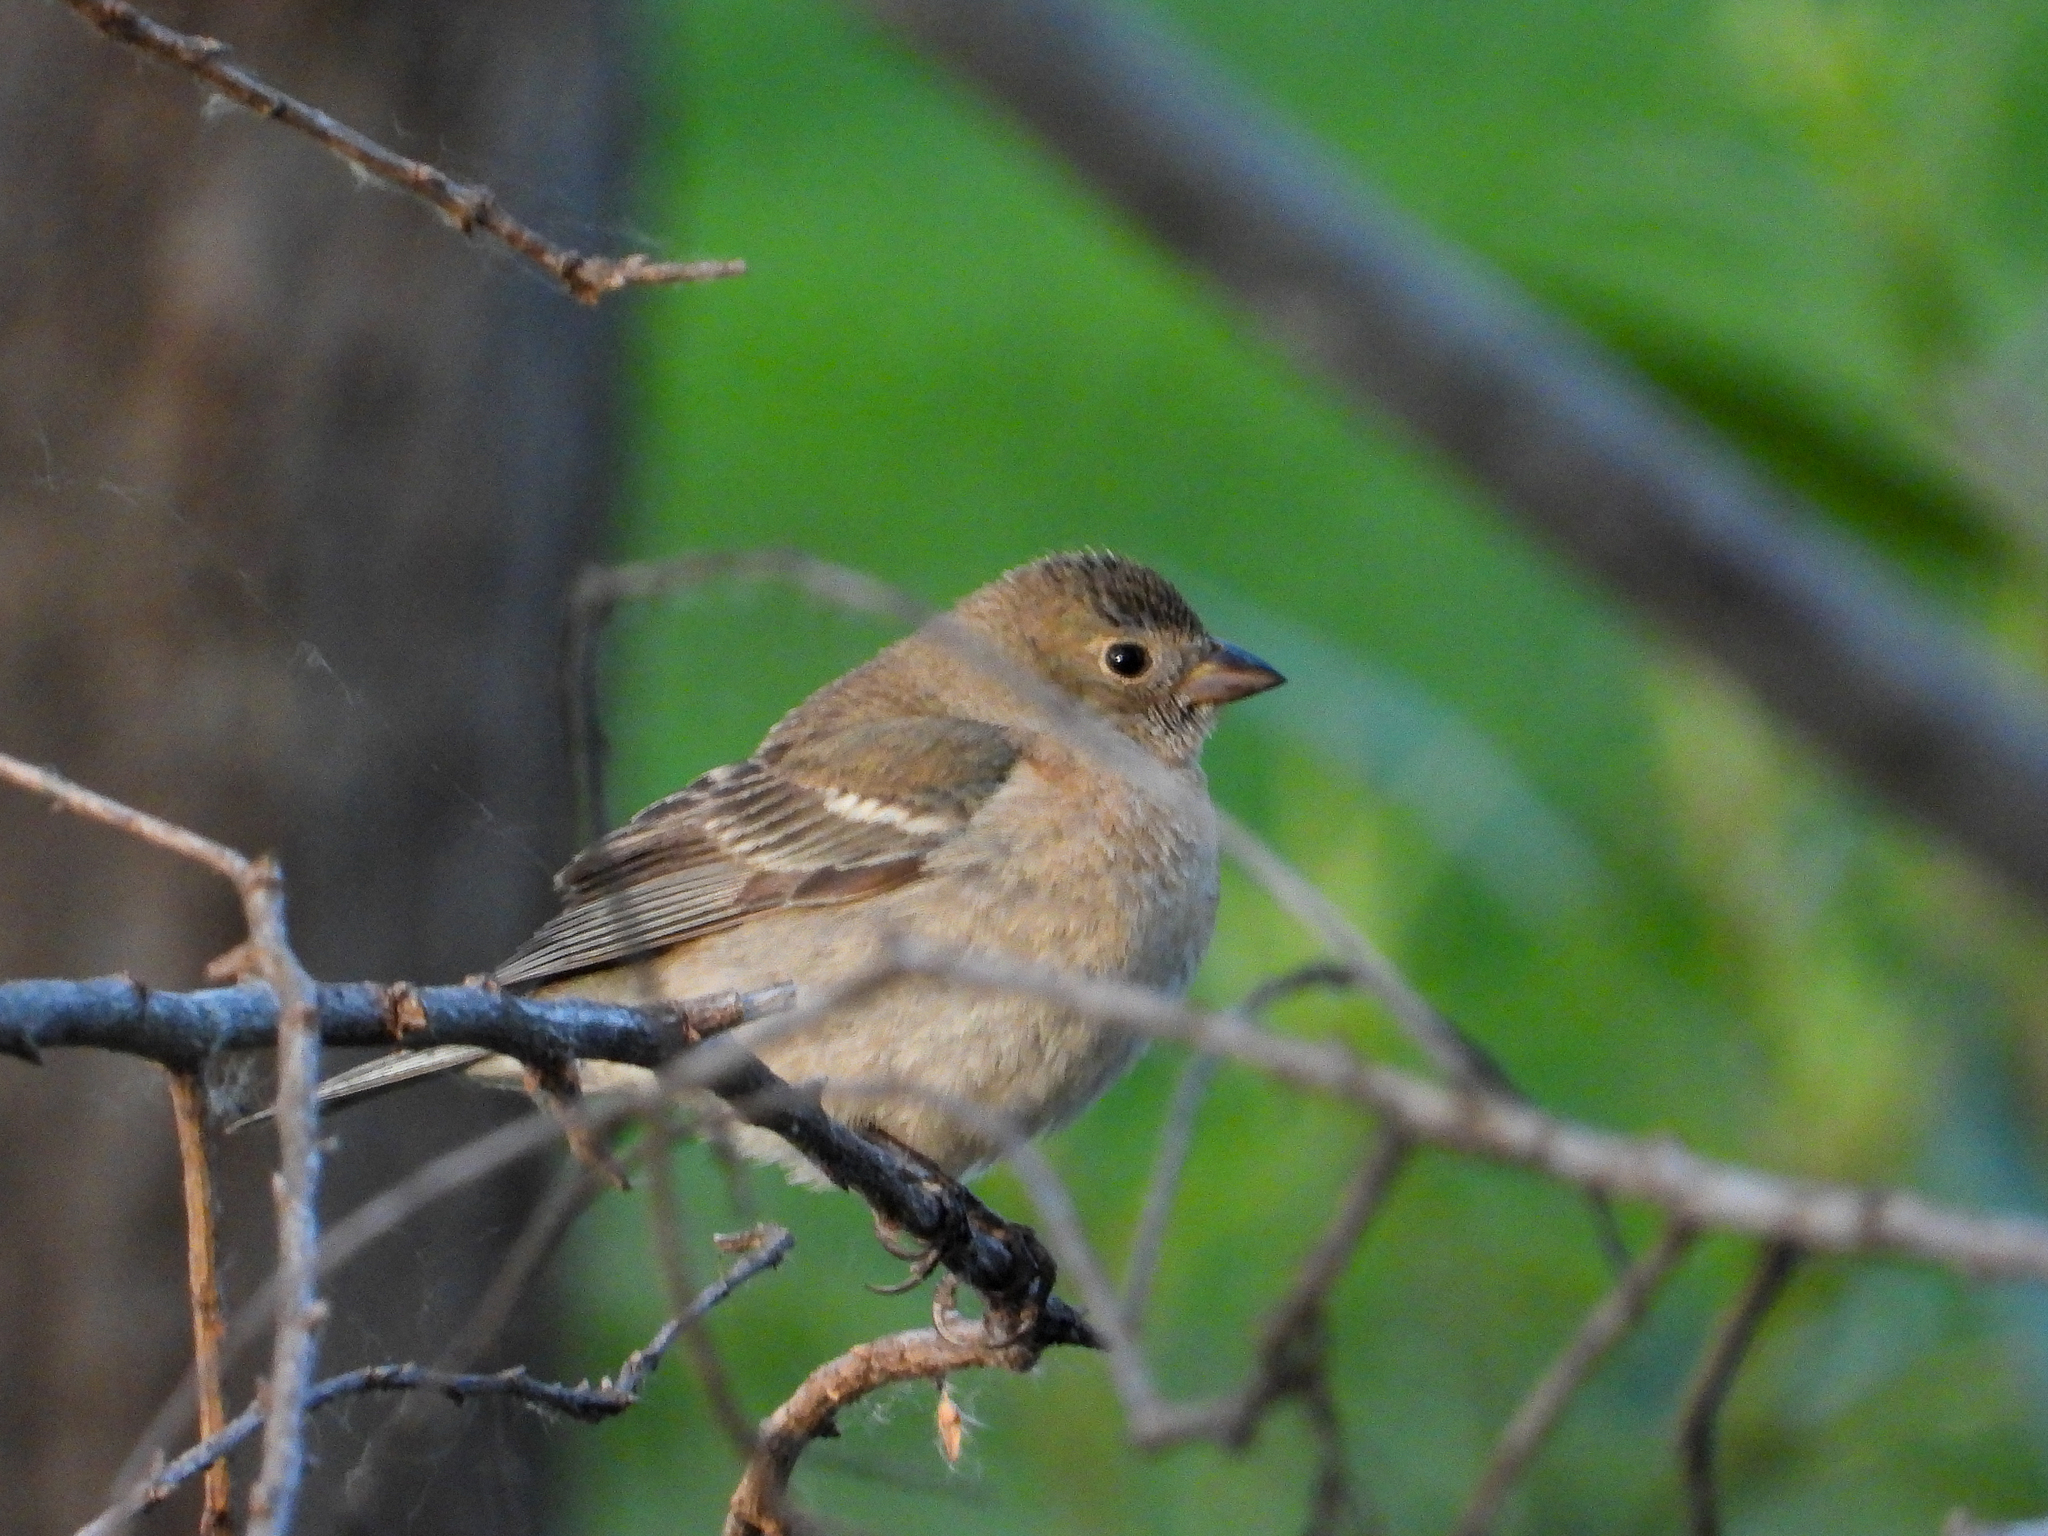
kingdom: Animalia
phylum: Chordata
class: Aves
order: Passeriformes
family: Cardinalidae
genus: Passerina
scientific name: Passerina amoena
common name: Lazuli bunting
